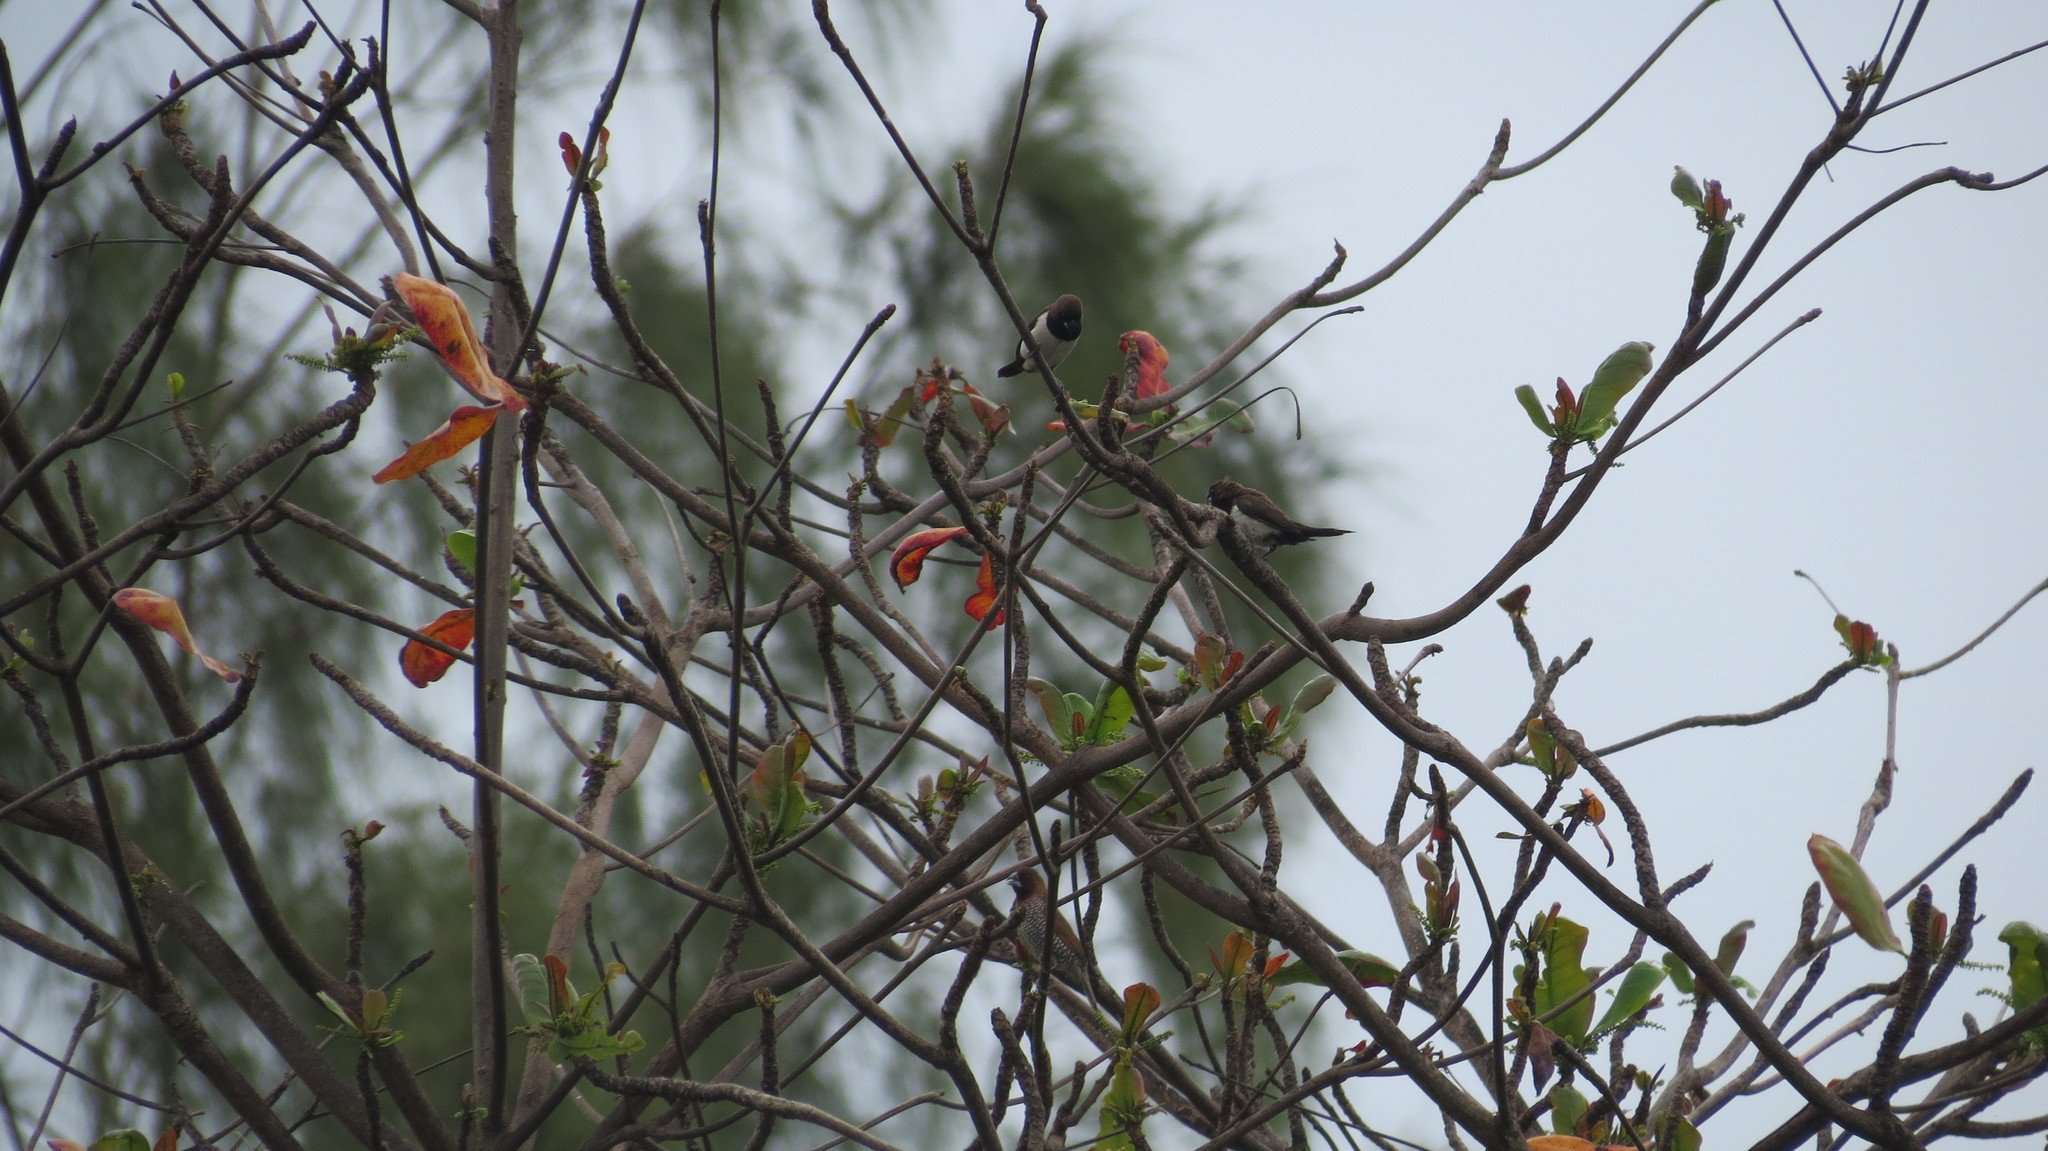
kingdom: Animalia
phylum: Chordata
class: Aves
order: Passeriformes
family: Estrildidae
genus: Lonchura
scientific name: Lonchura leucogastroides
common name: Javan munia
